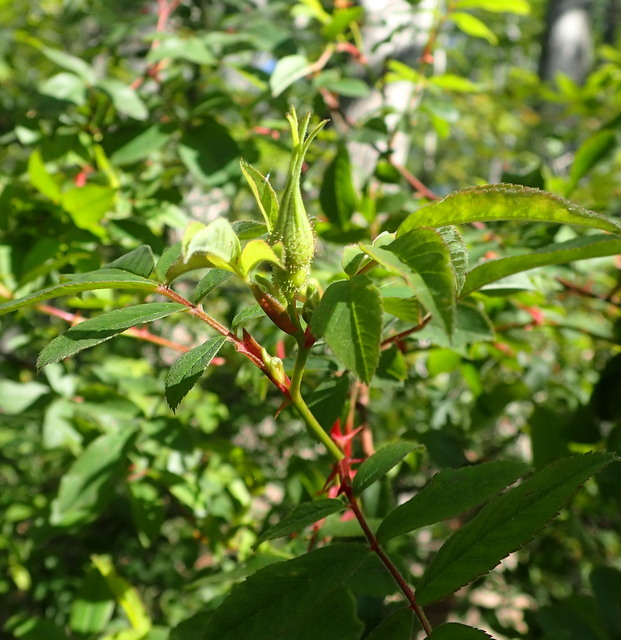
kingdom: Plantae
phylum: Tracheophyta
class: Magnoliopsida
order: Rosales
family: Rosaceae
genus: Rosa
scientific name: Rosa palustris
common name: Swamp rose
